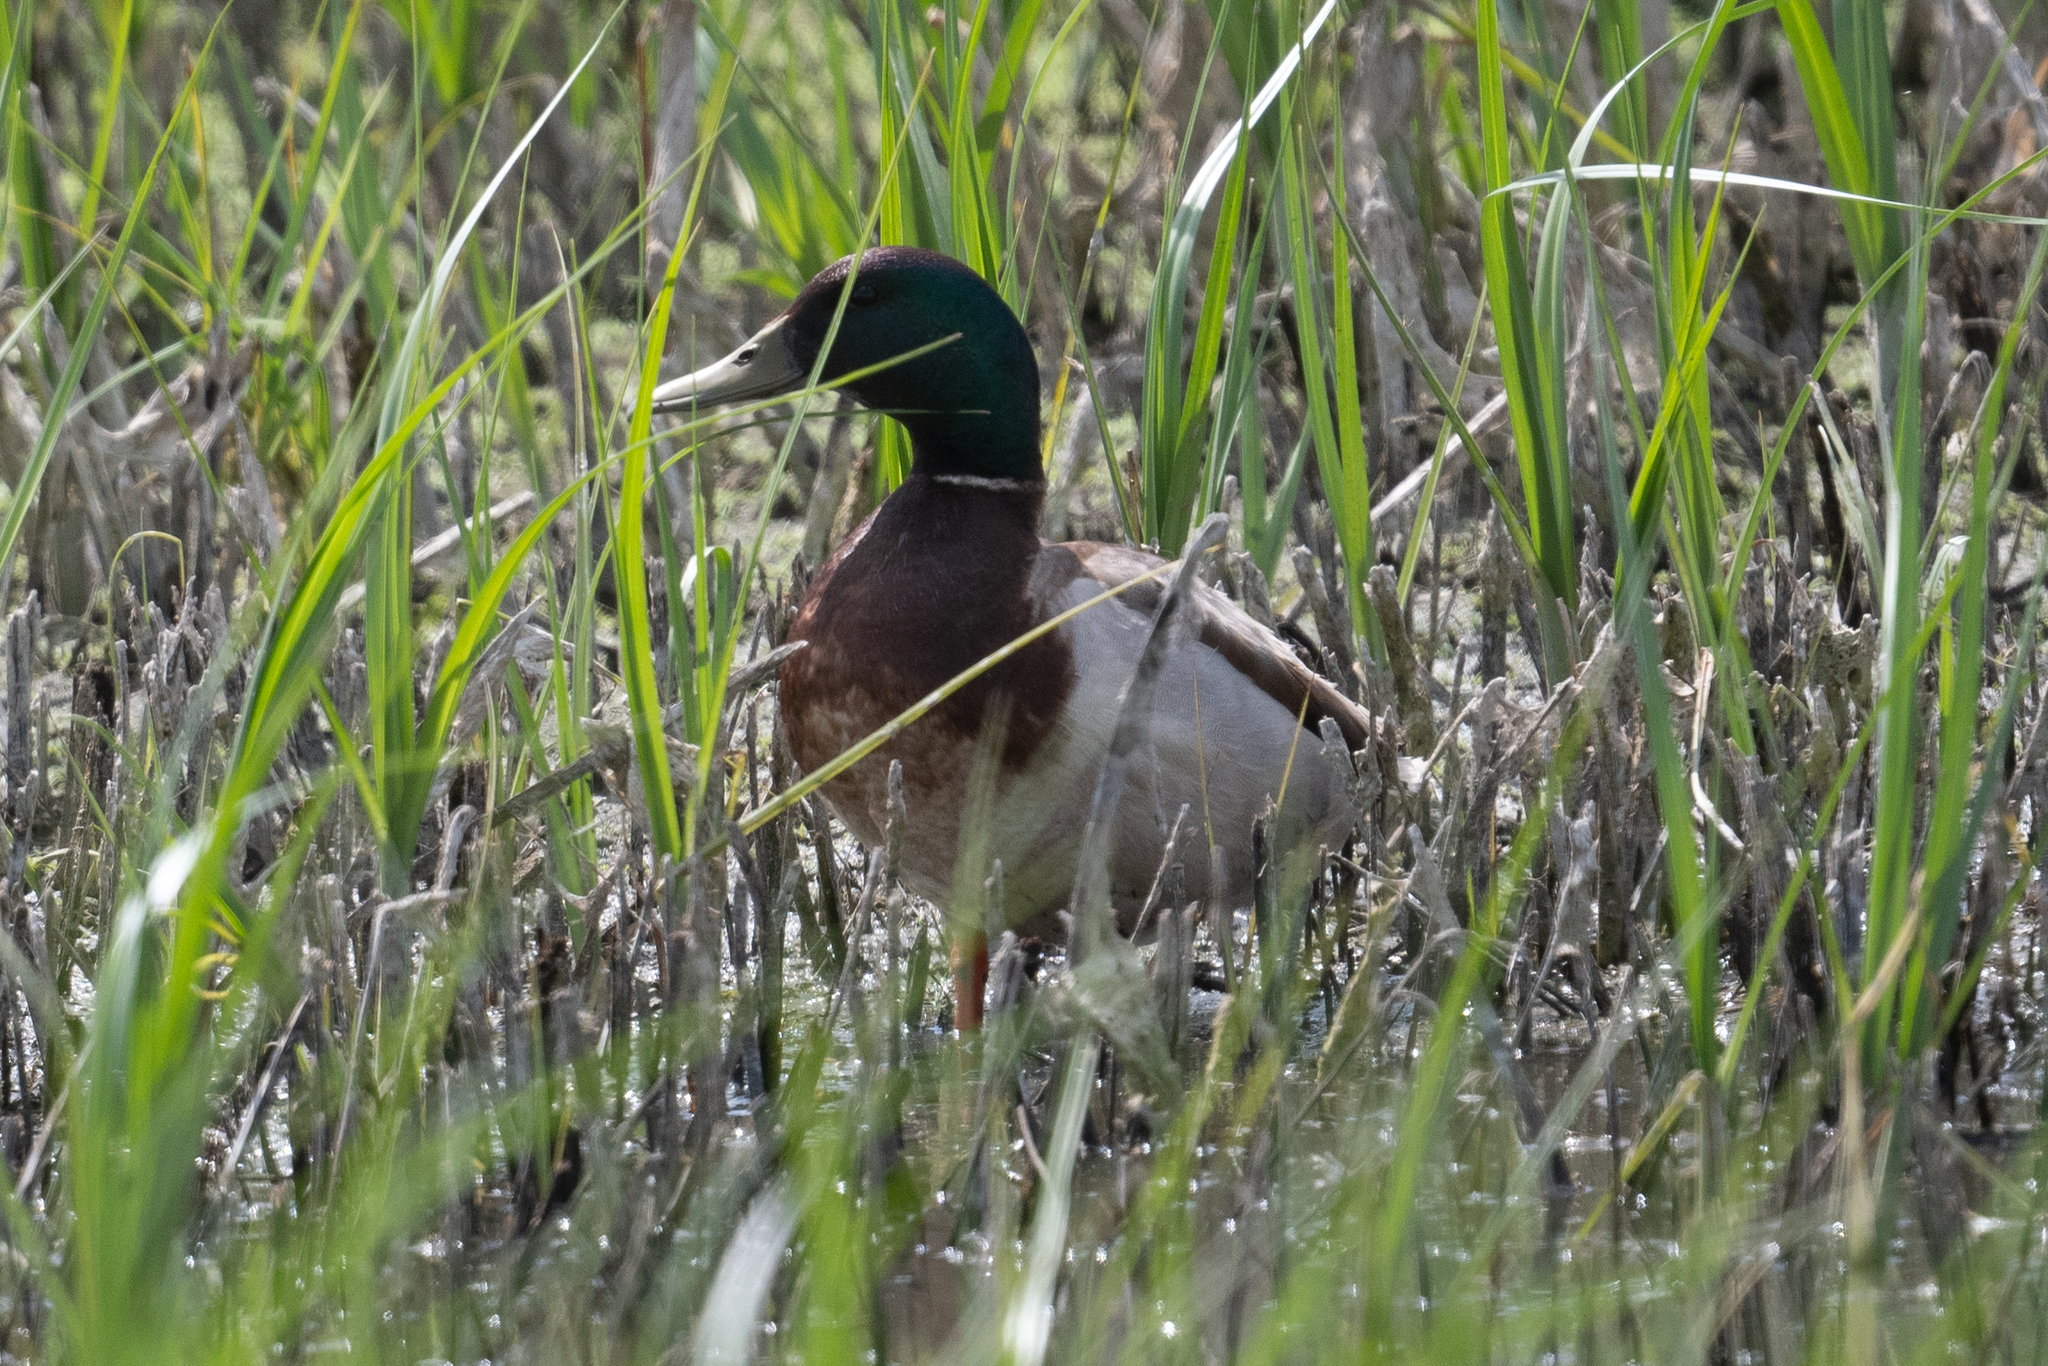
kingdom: Animalia
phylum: Chordata
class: Aves
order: Anseriformes
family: Anatidae
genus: Anas
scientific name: Anas platyrhynchos
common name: Mallard
